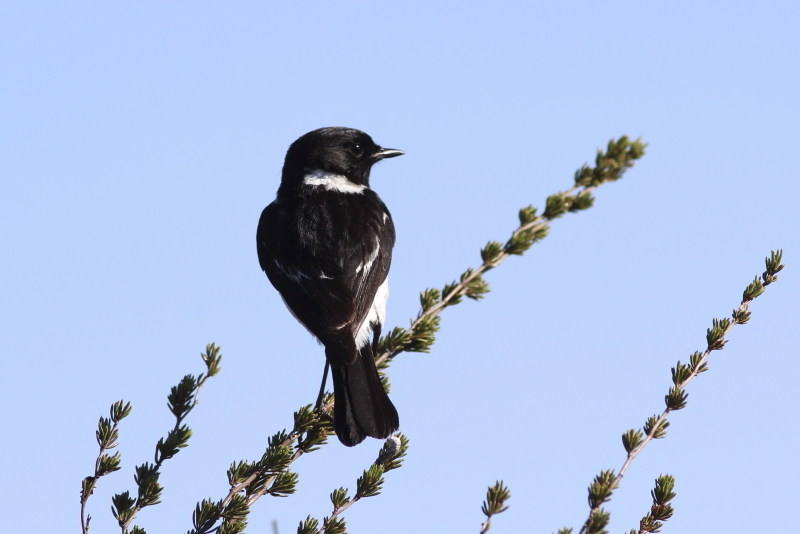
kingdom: Animalia
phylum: Chordata
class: Aves
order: Passeriformes
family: Muscicapidae
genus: Saxicola
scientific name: Saxicola torquatus
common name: African stonechat
